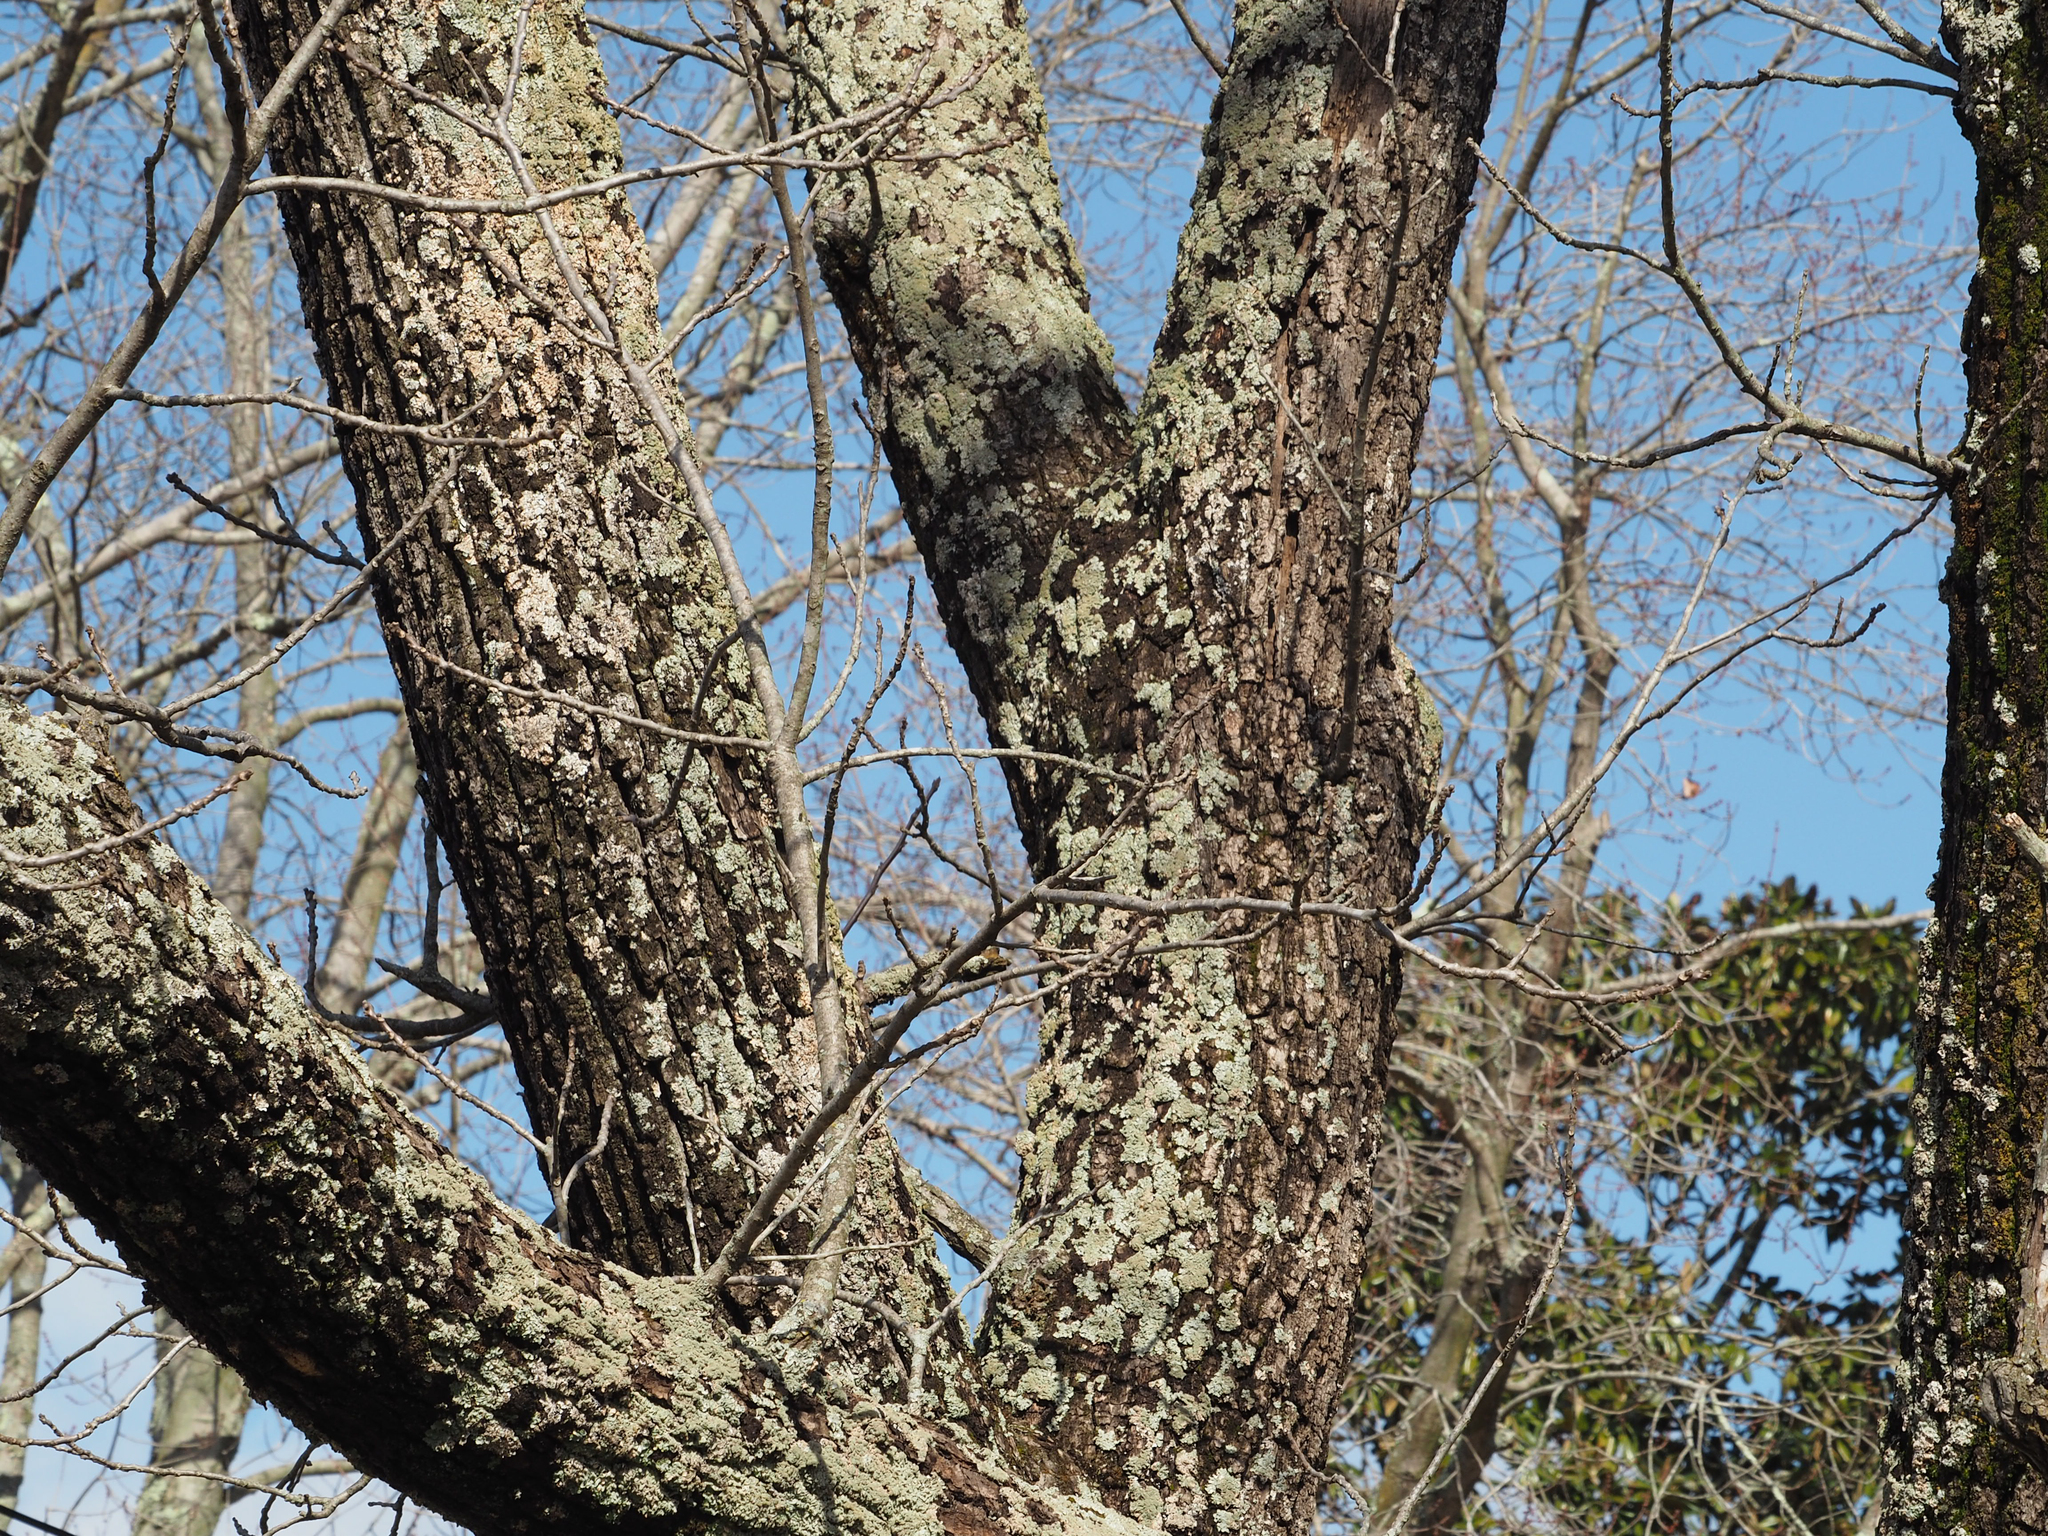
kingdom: Plantae
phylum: Tracheophyta
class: Magnoliopsida
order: Fagales
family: Juglandaceae
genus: Juglans
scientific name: Juglans nigra
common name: Black walnut
